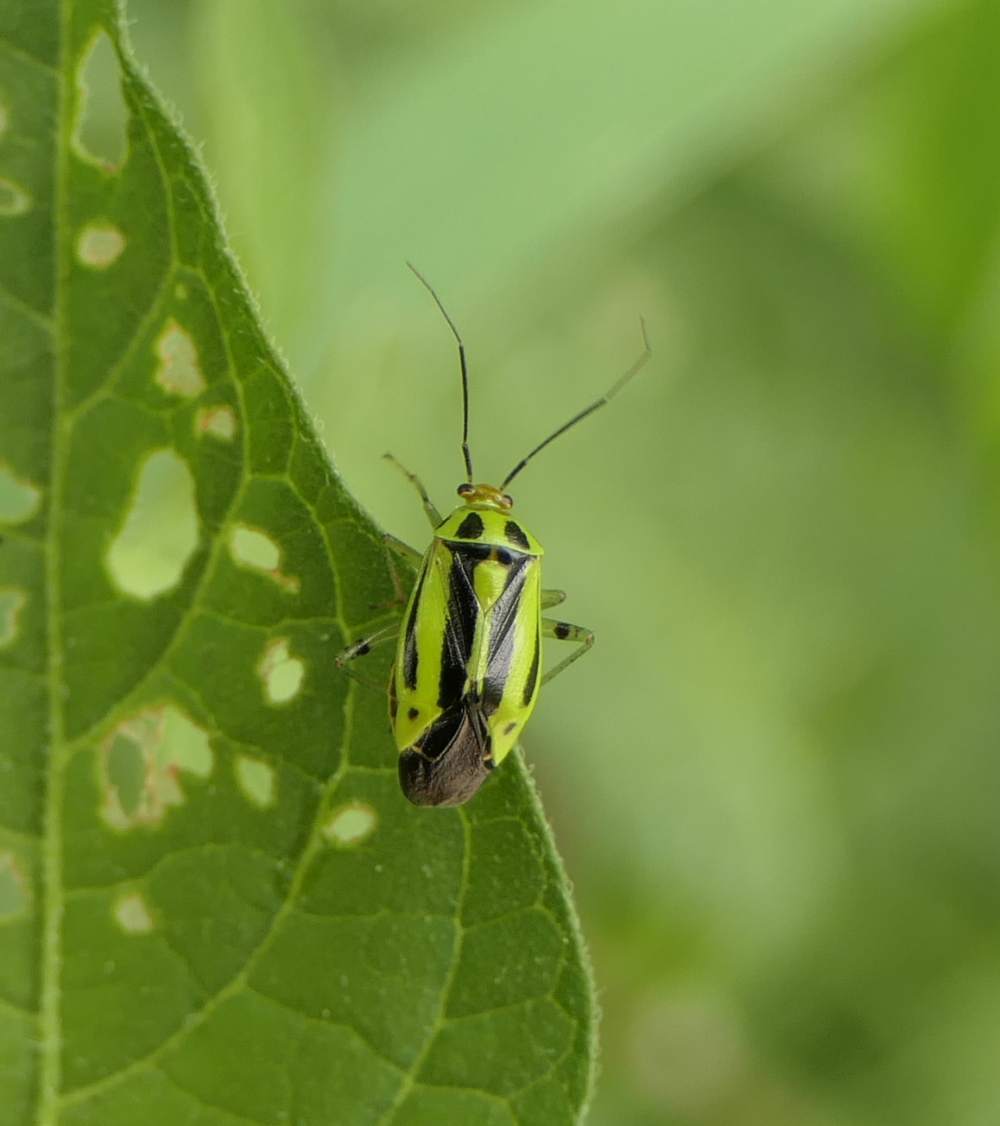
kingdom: Animalia
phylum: Arthropoda
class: Insecta
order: Hemiptera
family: Miridae
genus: Poecilocapsus
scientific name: Poecilocapsus lineatus
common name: Four-lined plant bug
